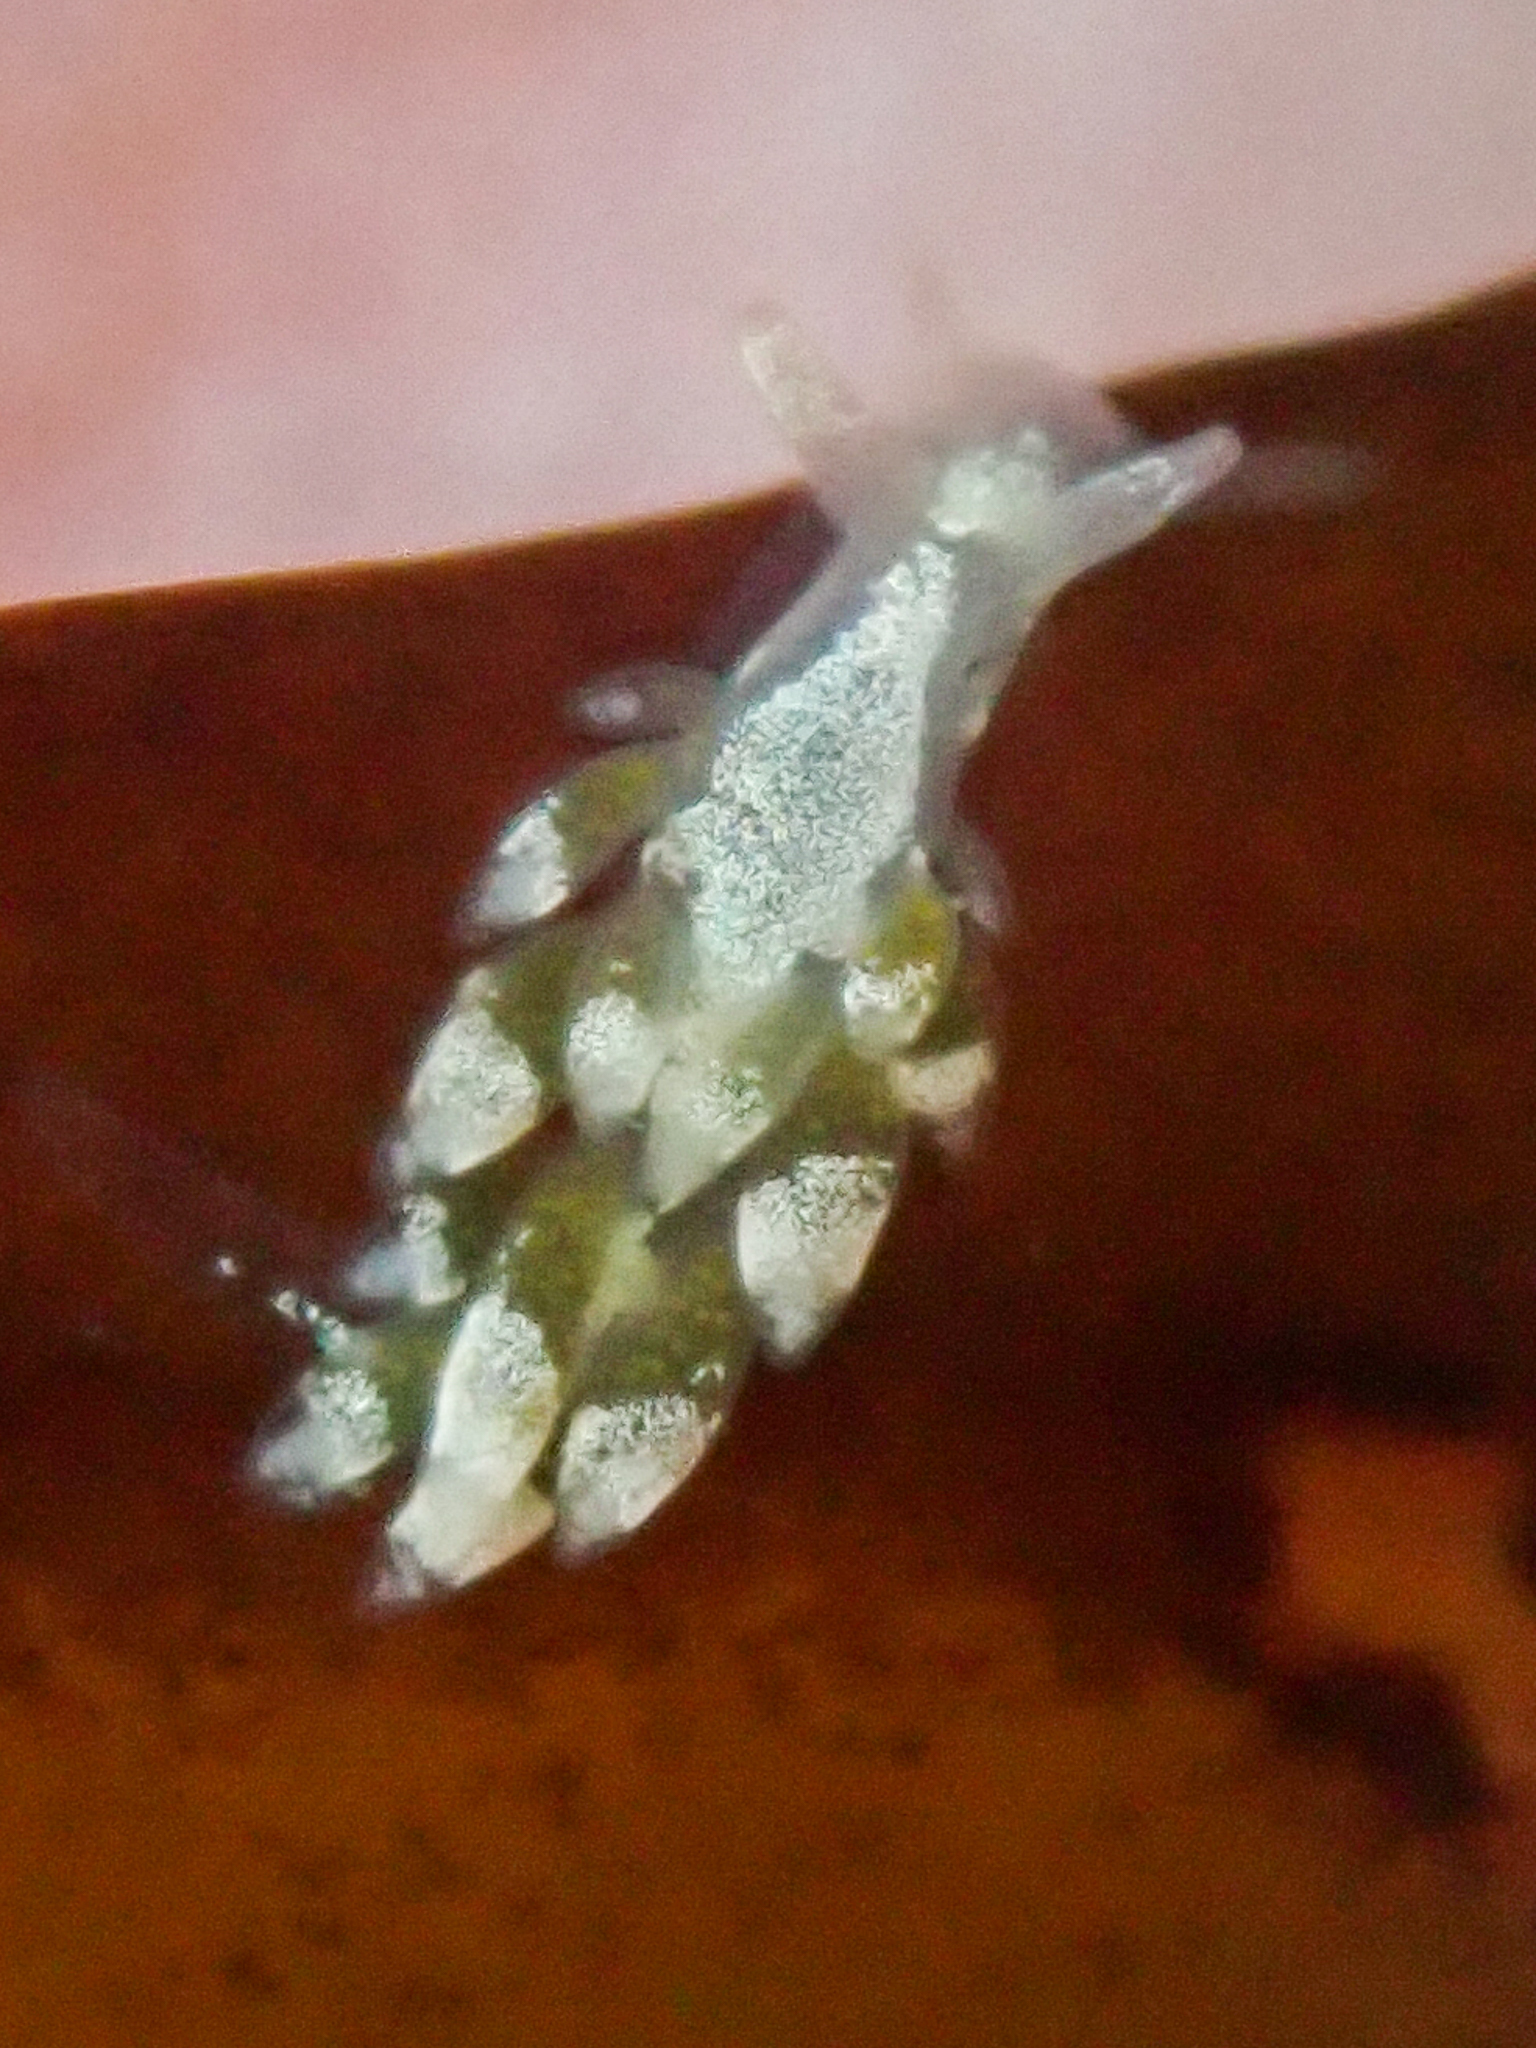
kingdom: Animalia
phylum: Mollusca
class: Gastropoda
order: Nudibranchia
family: Trinchesiidae
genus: Trinchesia
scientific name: Trinchesia albocrusta
